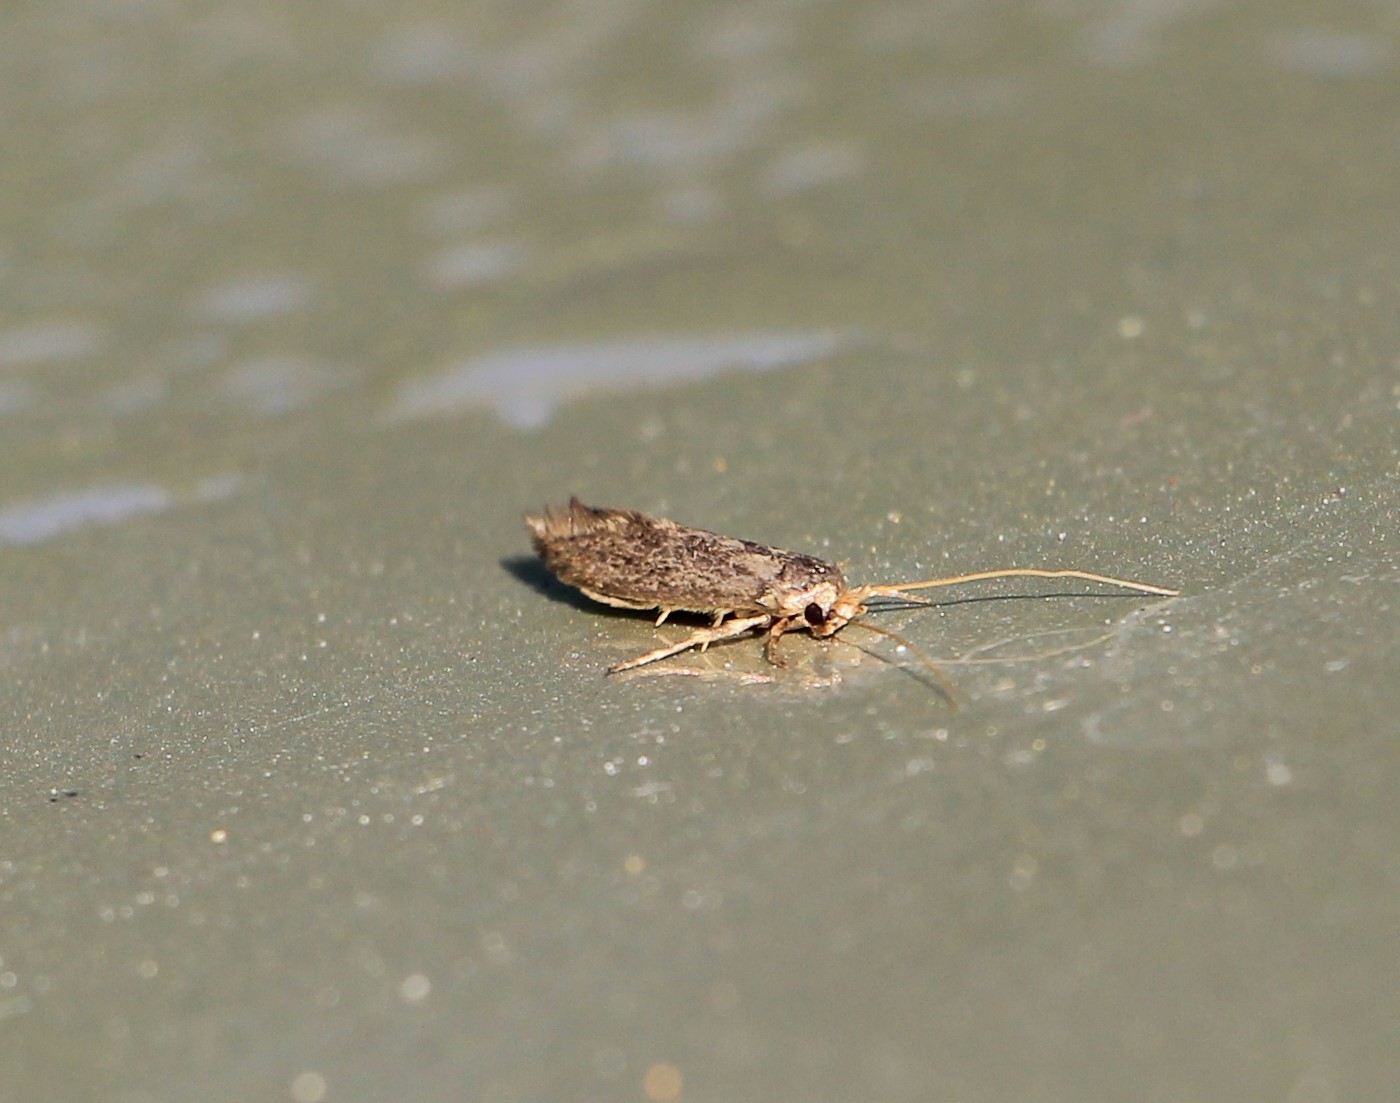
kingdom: Animalia
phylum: Arthropoda
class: Insecta
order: Lepidoptera
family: Tineidae
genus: Opogona
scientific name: Opogona omoscopa
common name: Moth
